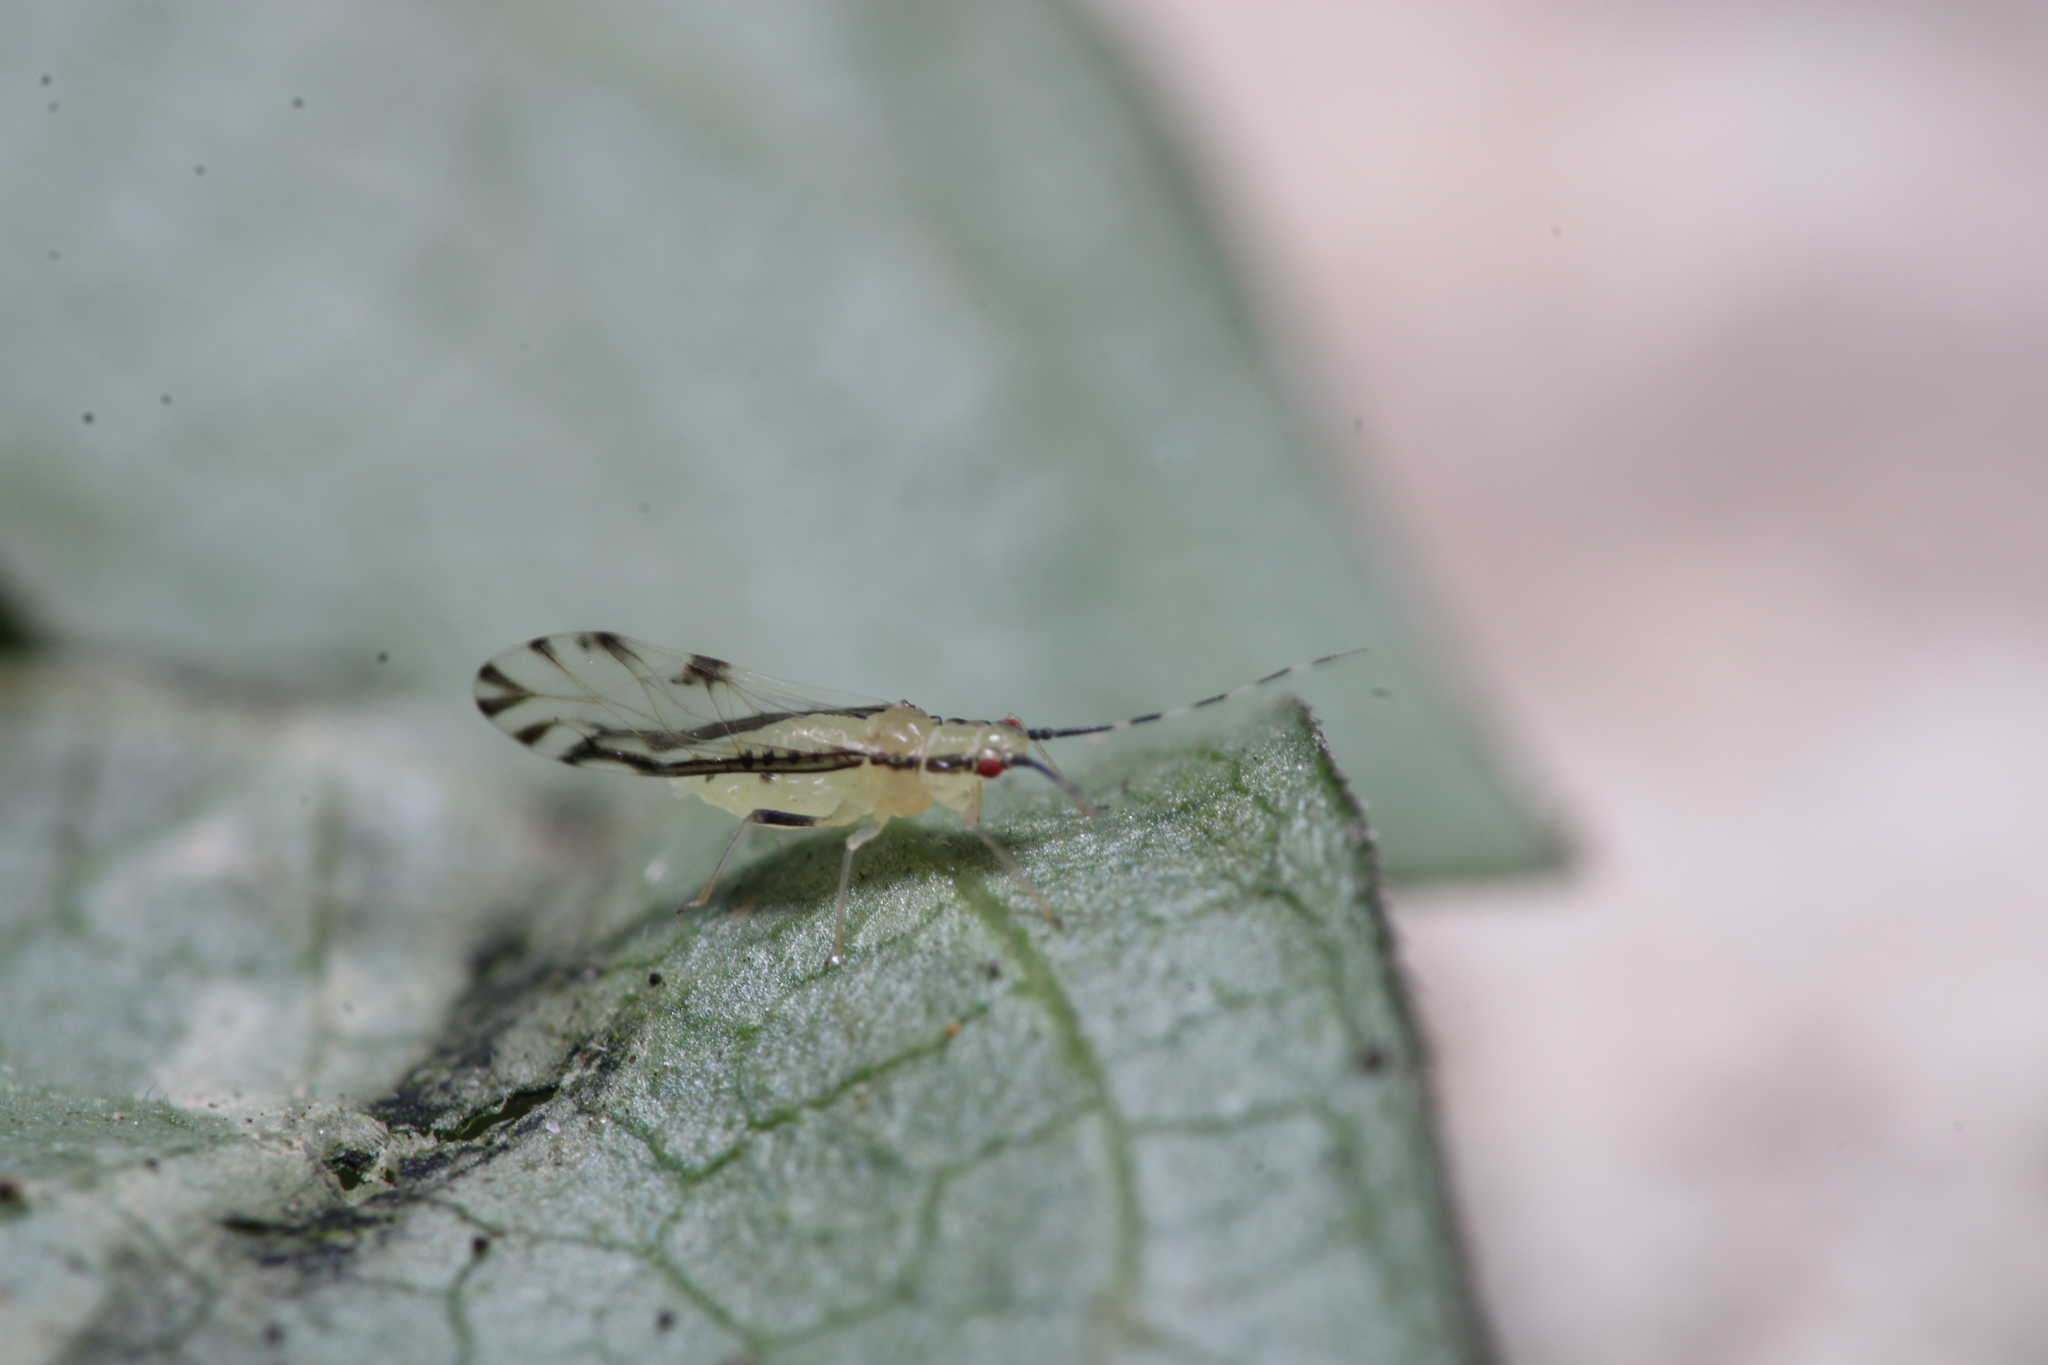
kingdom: Animalia
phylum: Arthropoda
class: Insecta
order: Hemiptera
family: Aphididae
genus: Eucallipterus
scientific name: Eucallipterus tiliae
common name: Aphid
